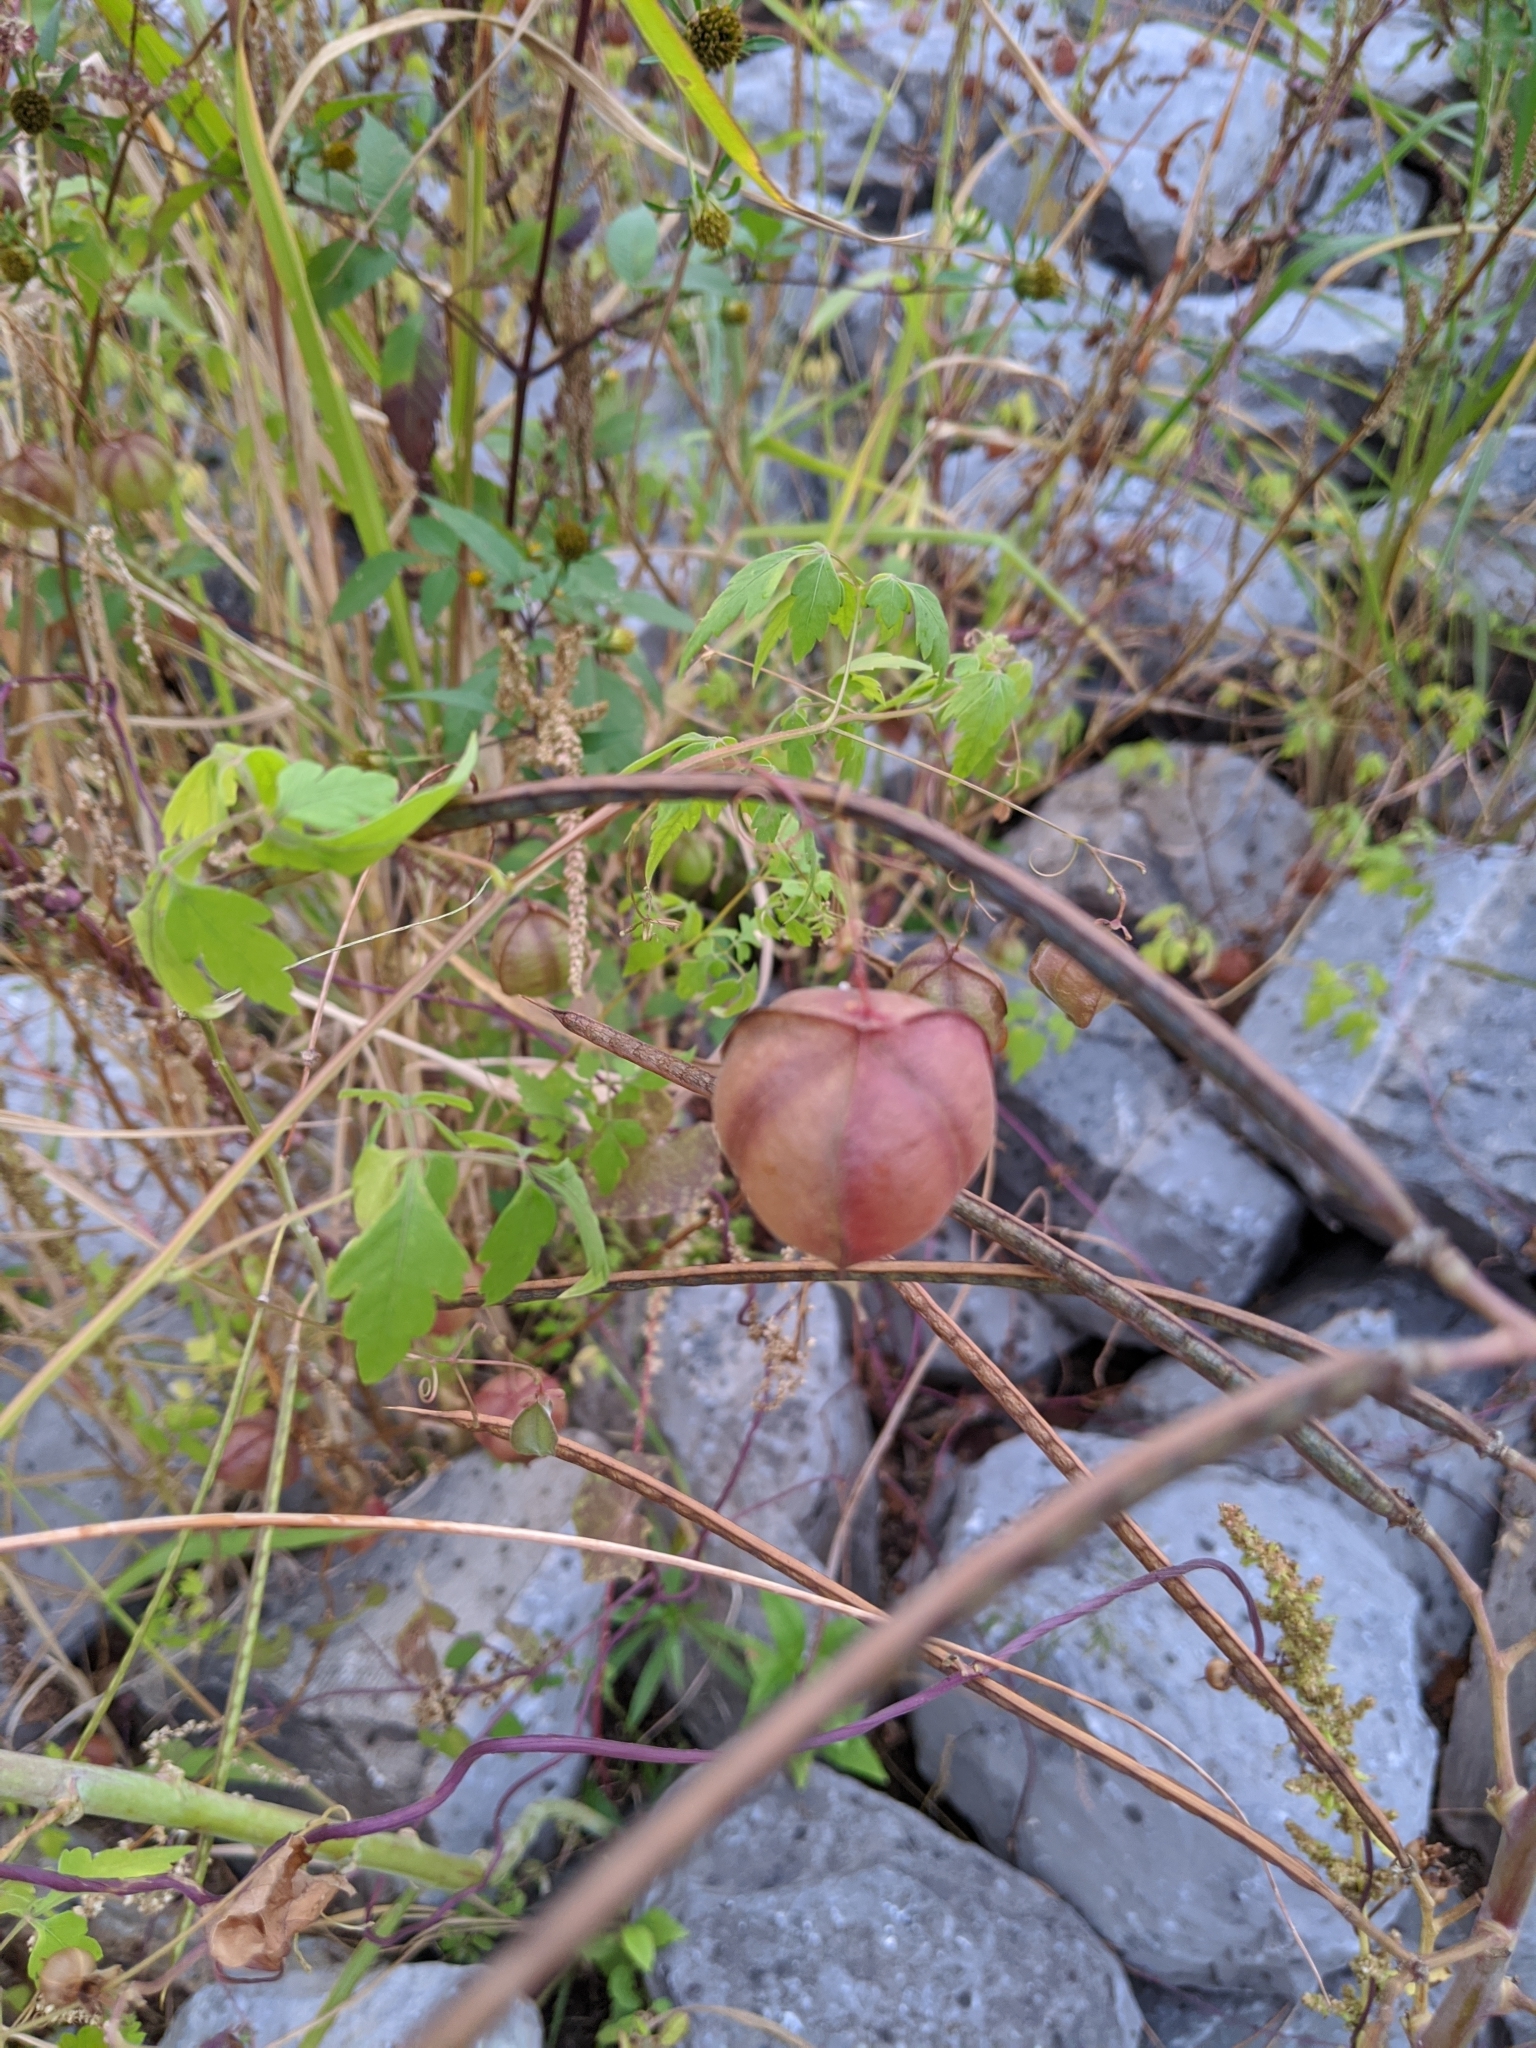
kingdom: Plantae
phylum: Tracheophyta
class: Magnoliopsida
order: Sapindales
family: Sapindaceae
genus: Cardiospermum
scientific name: Cardiospermum halicacabum
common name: Balloon vine
